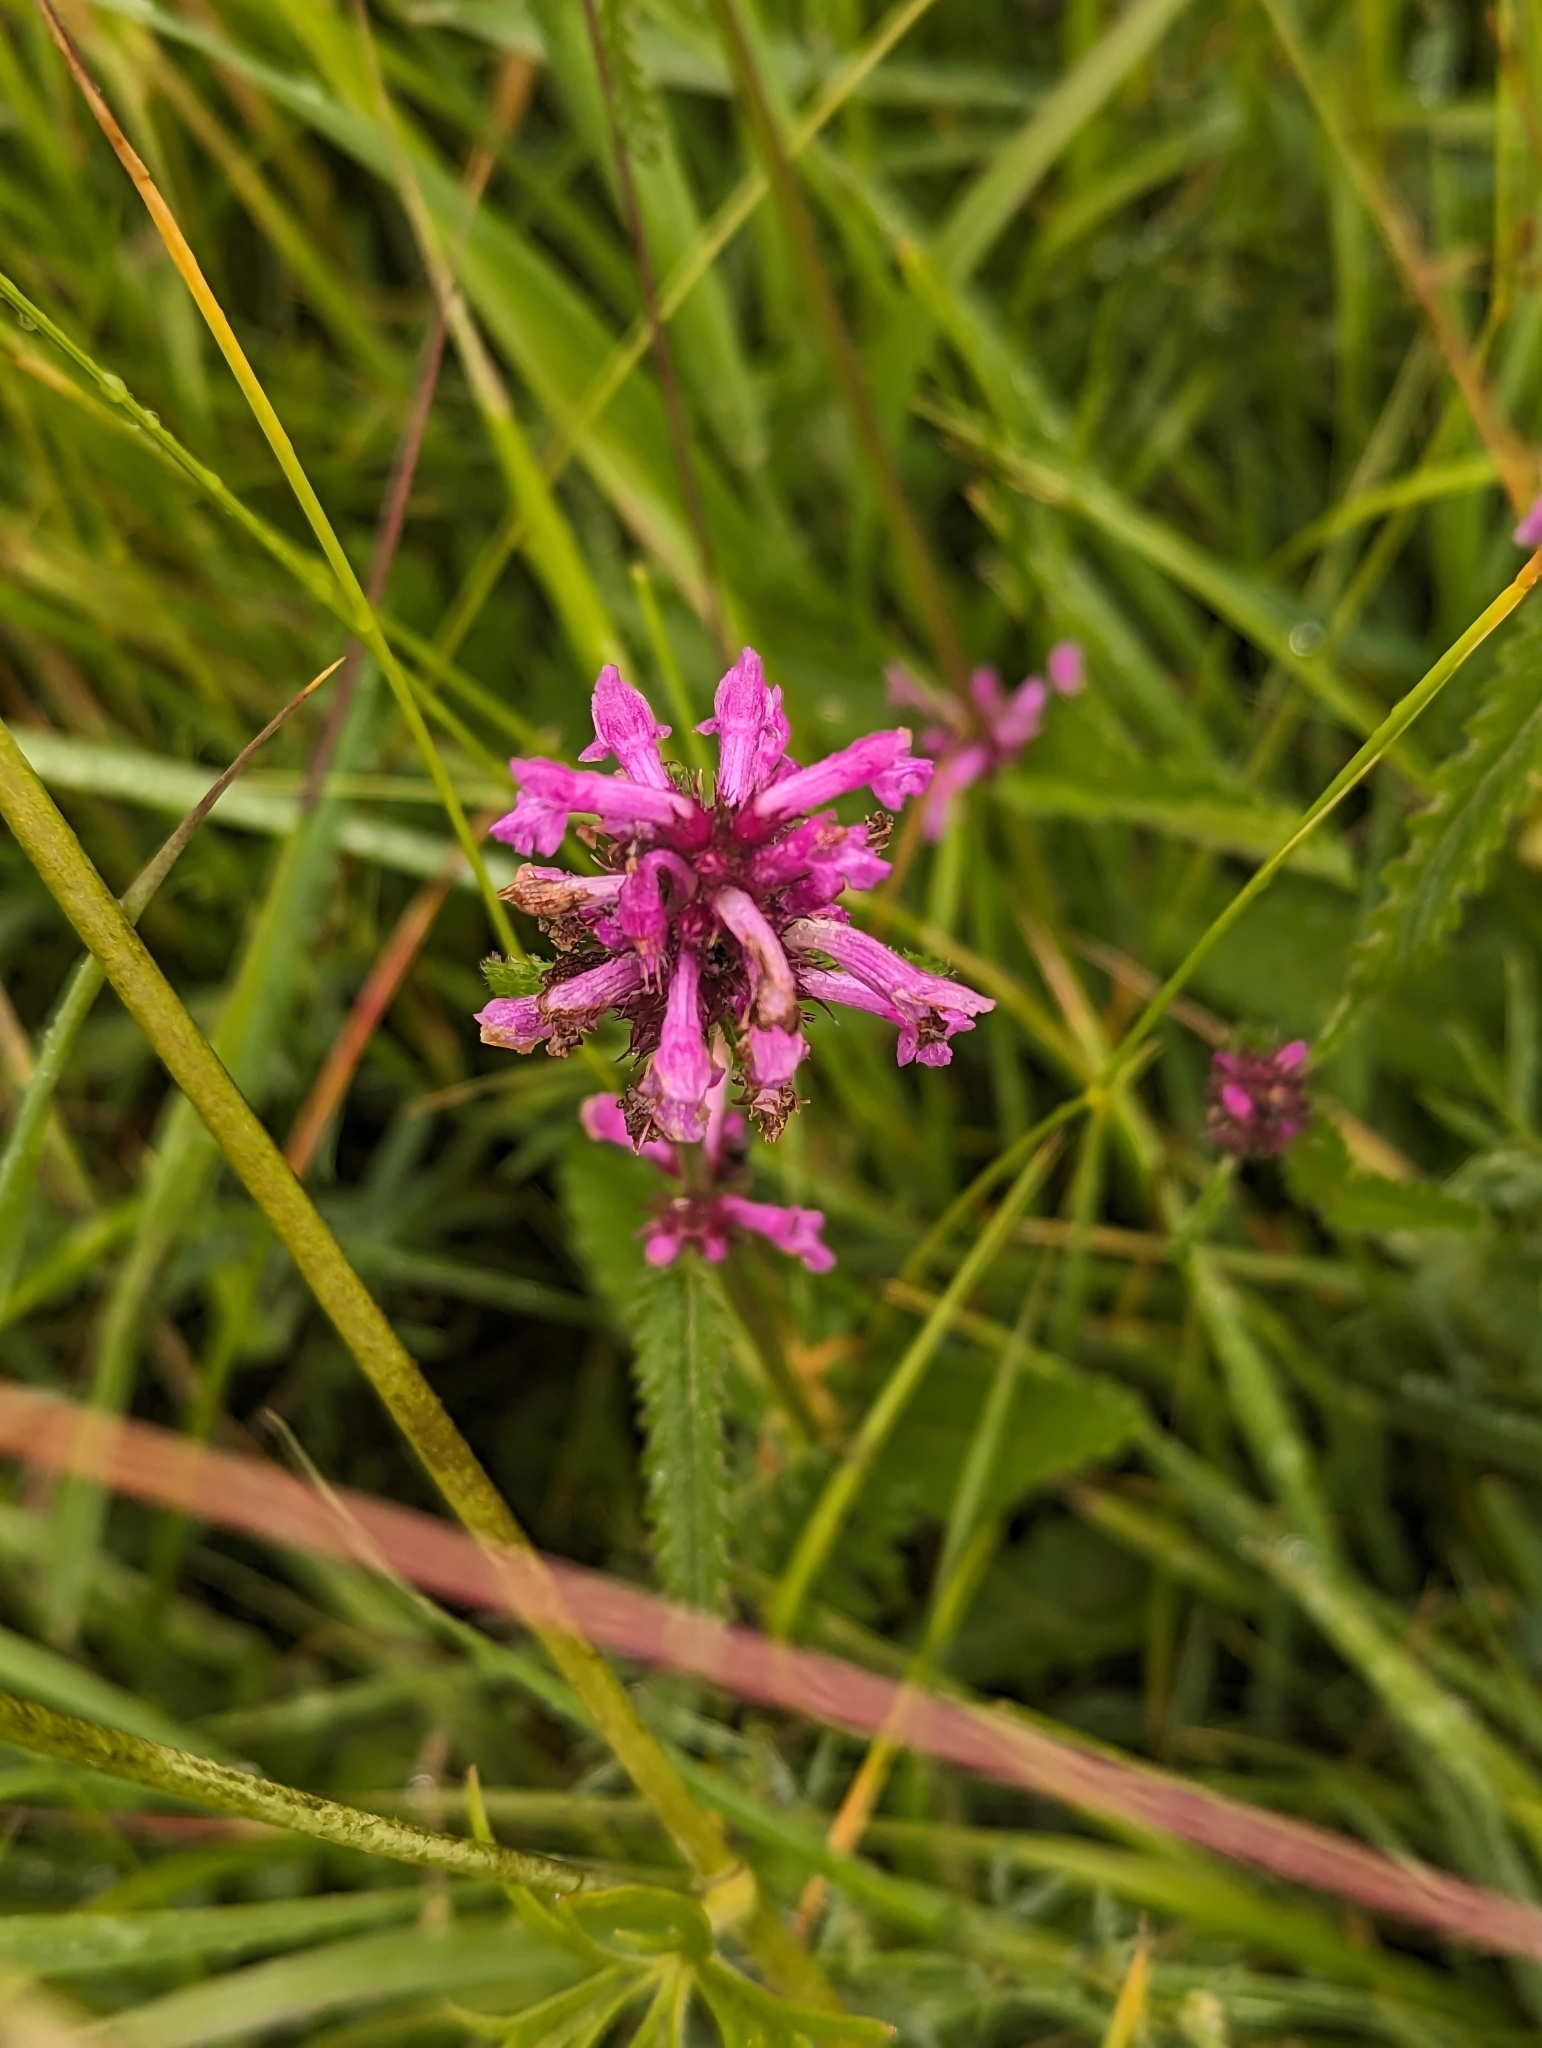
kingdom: Plantae
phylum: Tracheophyta
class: Magnoliopsida
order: Lamiales
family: Lamiaceae
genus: Betonica
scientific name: Betonica officinalis
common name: Bishop's-wort
